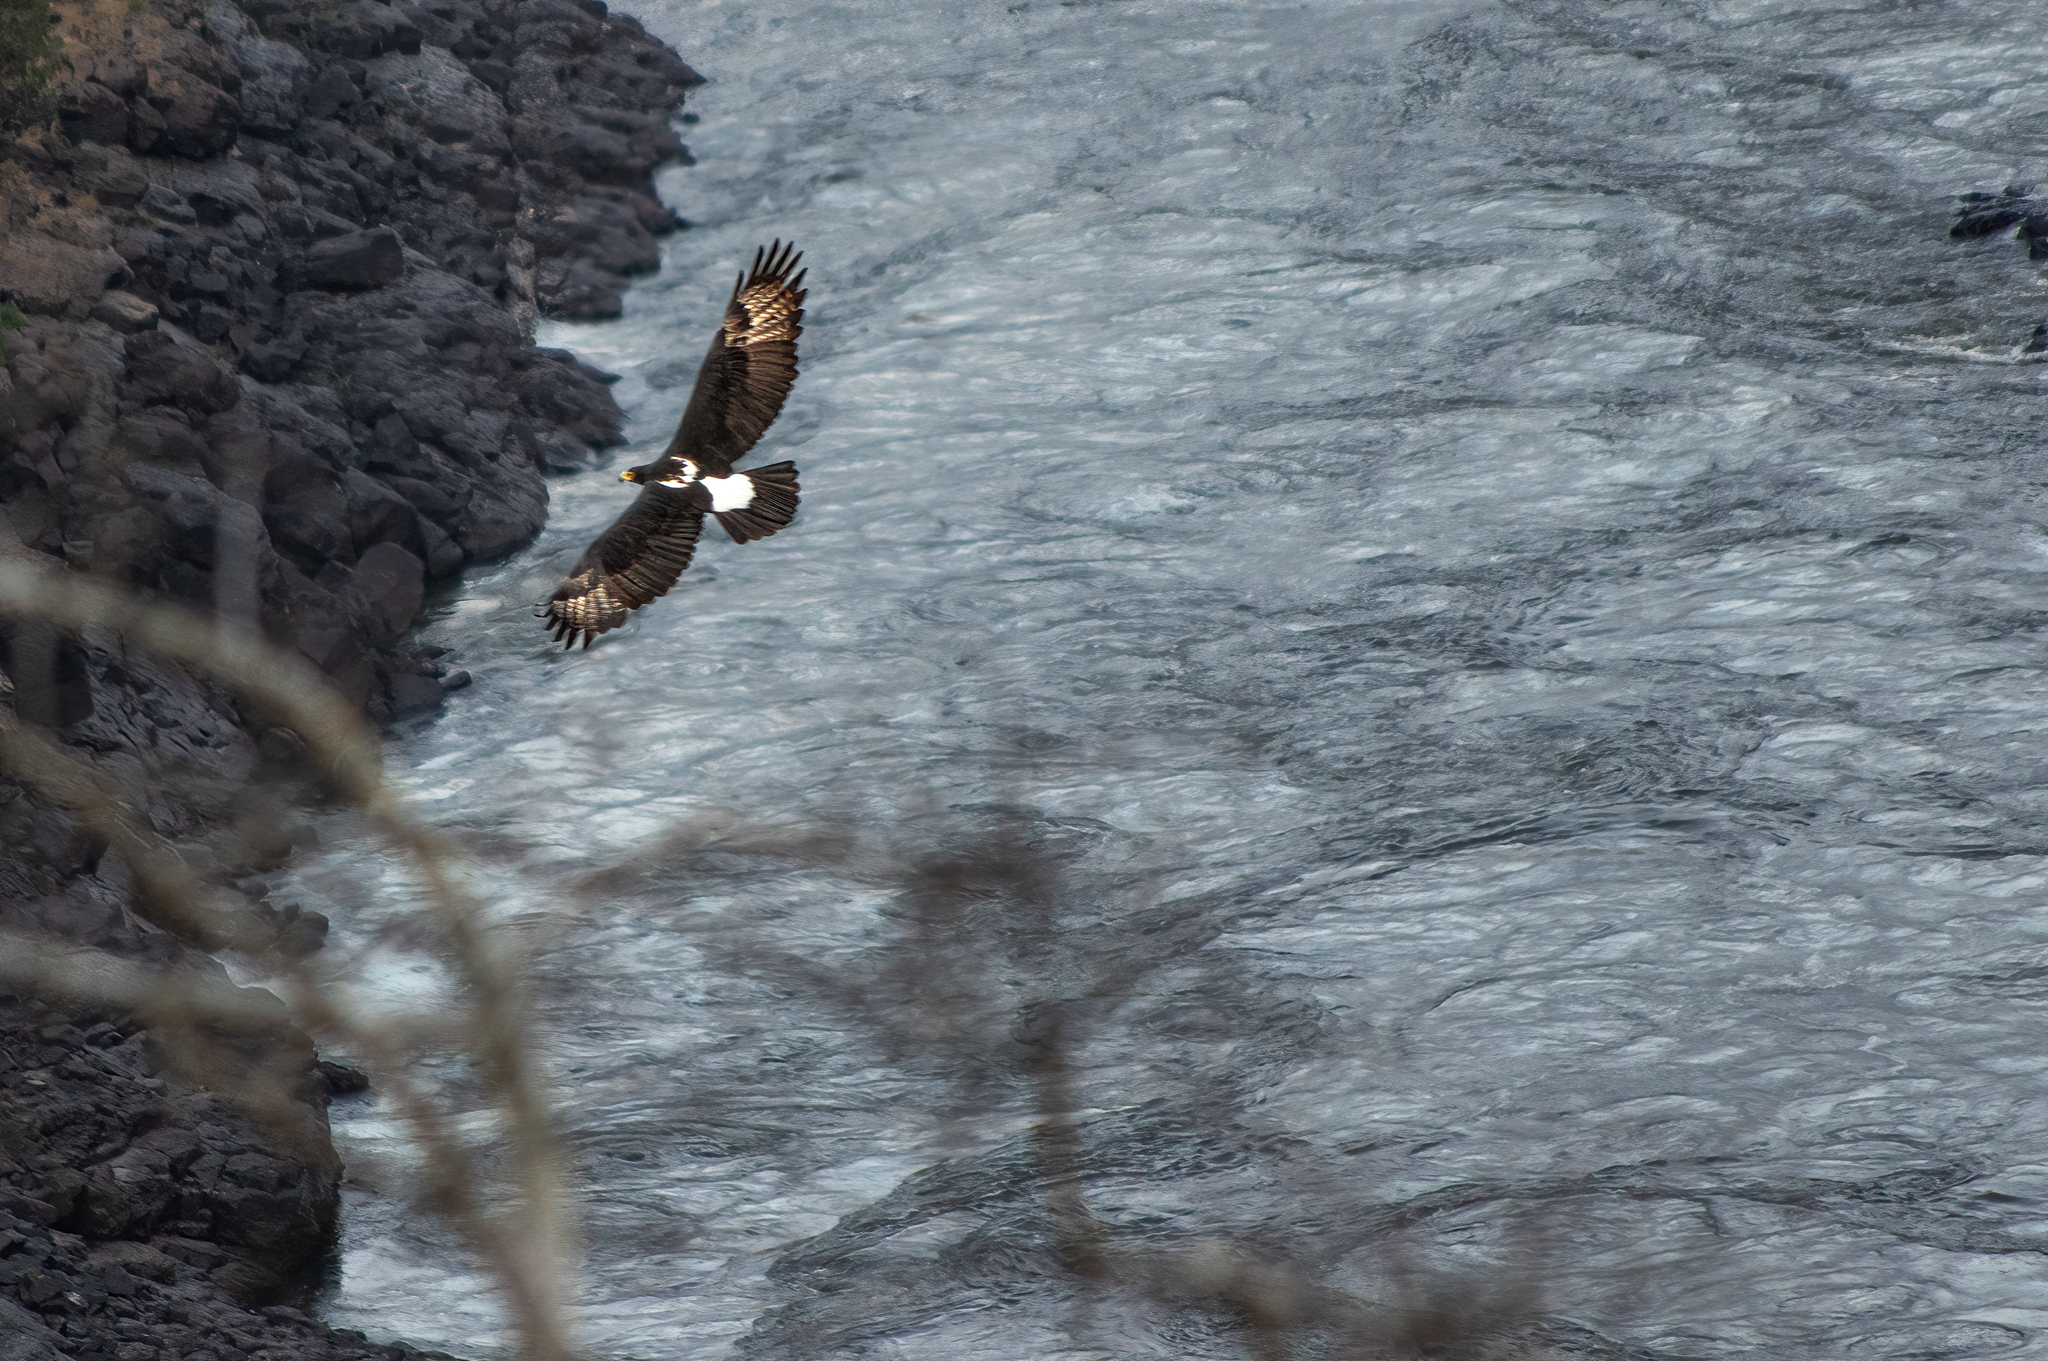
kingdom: Animalia
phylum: Chordata
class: Aves
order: Accipitriformes
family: Accipitridae
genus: Aquila
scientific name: Aquila verreauxii
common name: Verreaux's eagle
